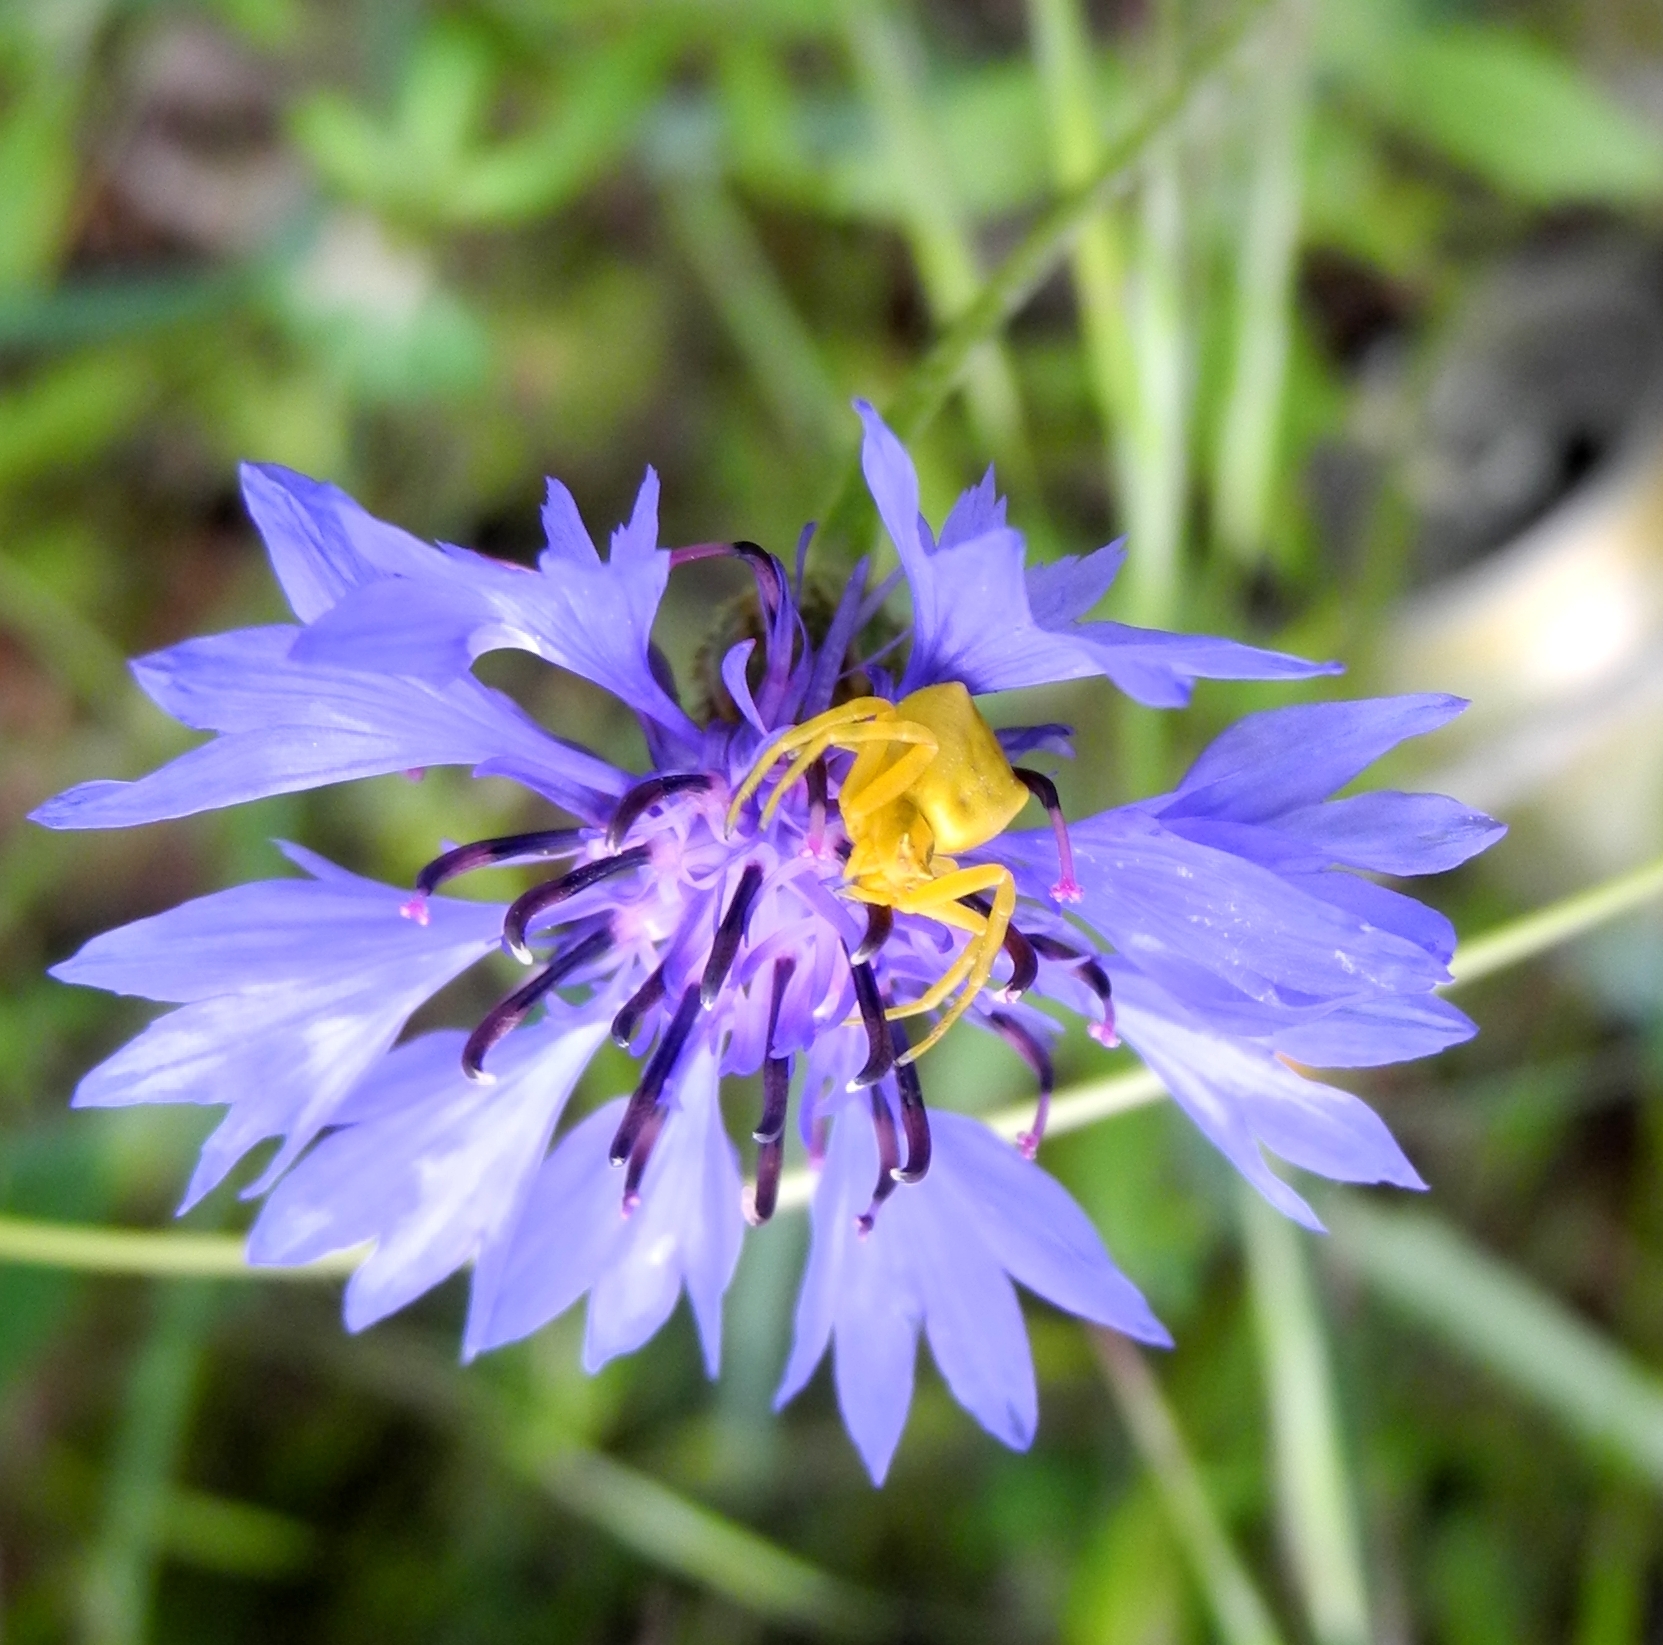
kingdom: Animalia
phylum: Arthropoda
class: Arachnida
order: Araneae
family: Thomisidae
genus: Thomisus
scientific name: Thomisus onustus
